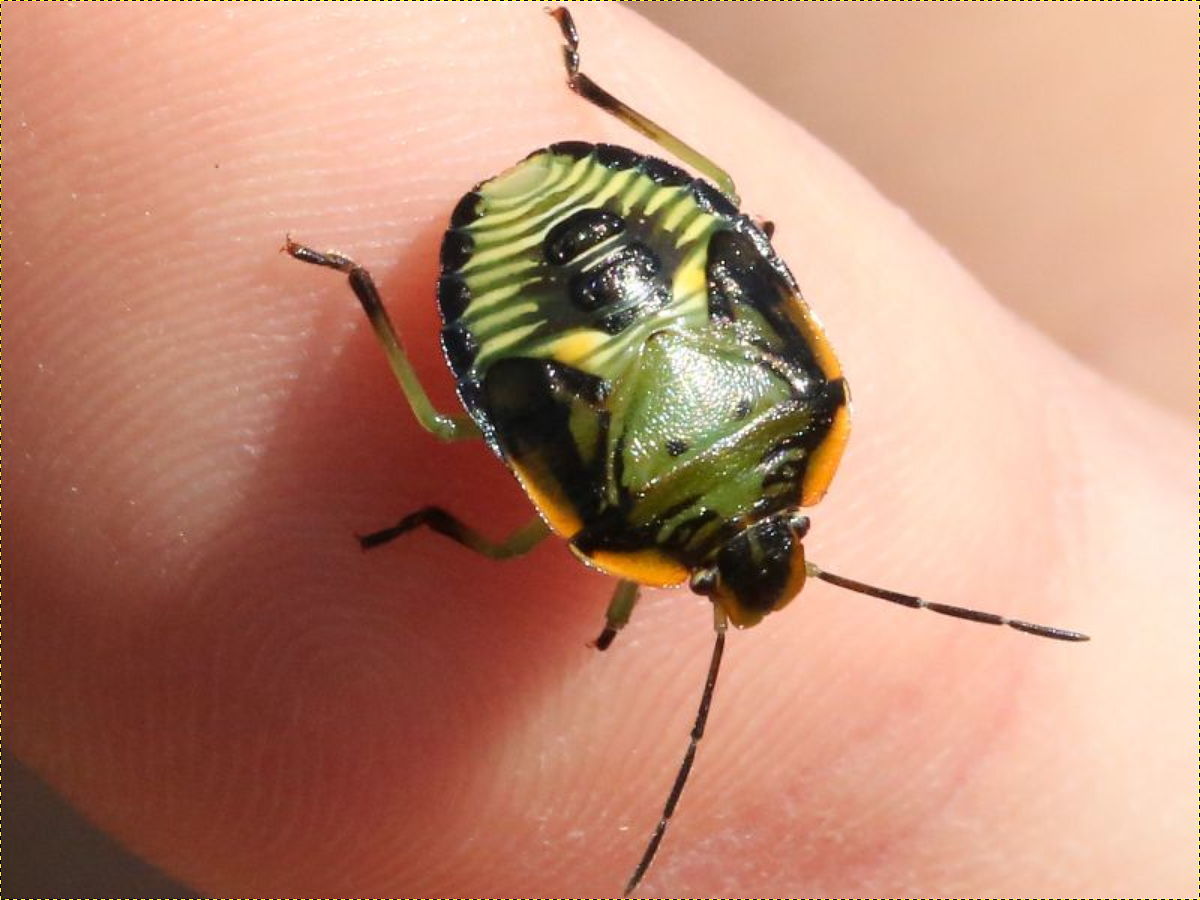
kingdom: Animalia
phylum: Arthropoda
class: Insecta
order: Hemiptera
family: Pentatomidae
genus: Chinavia
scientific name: Chinavia hilaris
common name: Green stink bug
